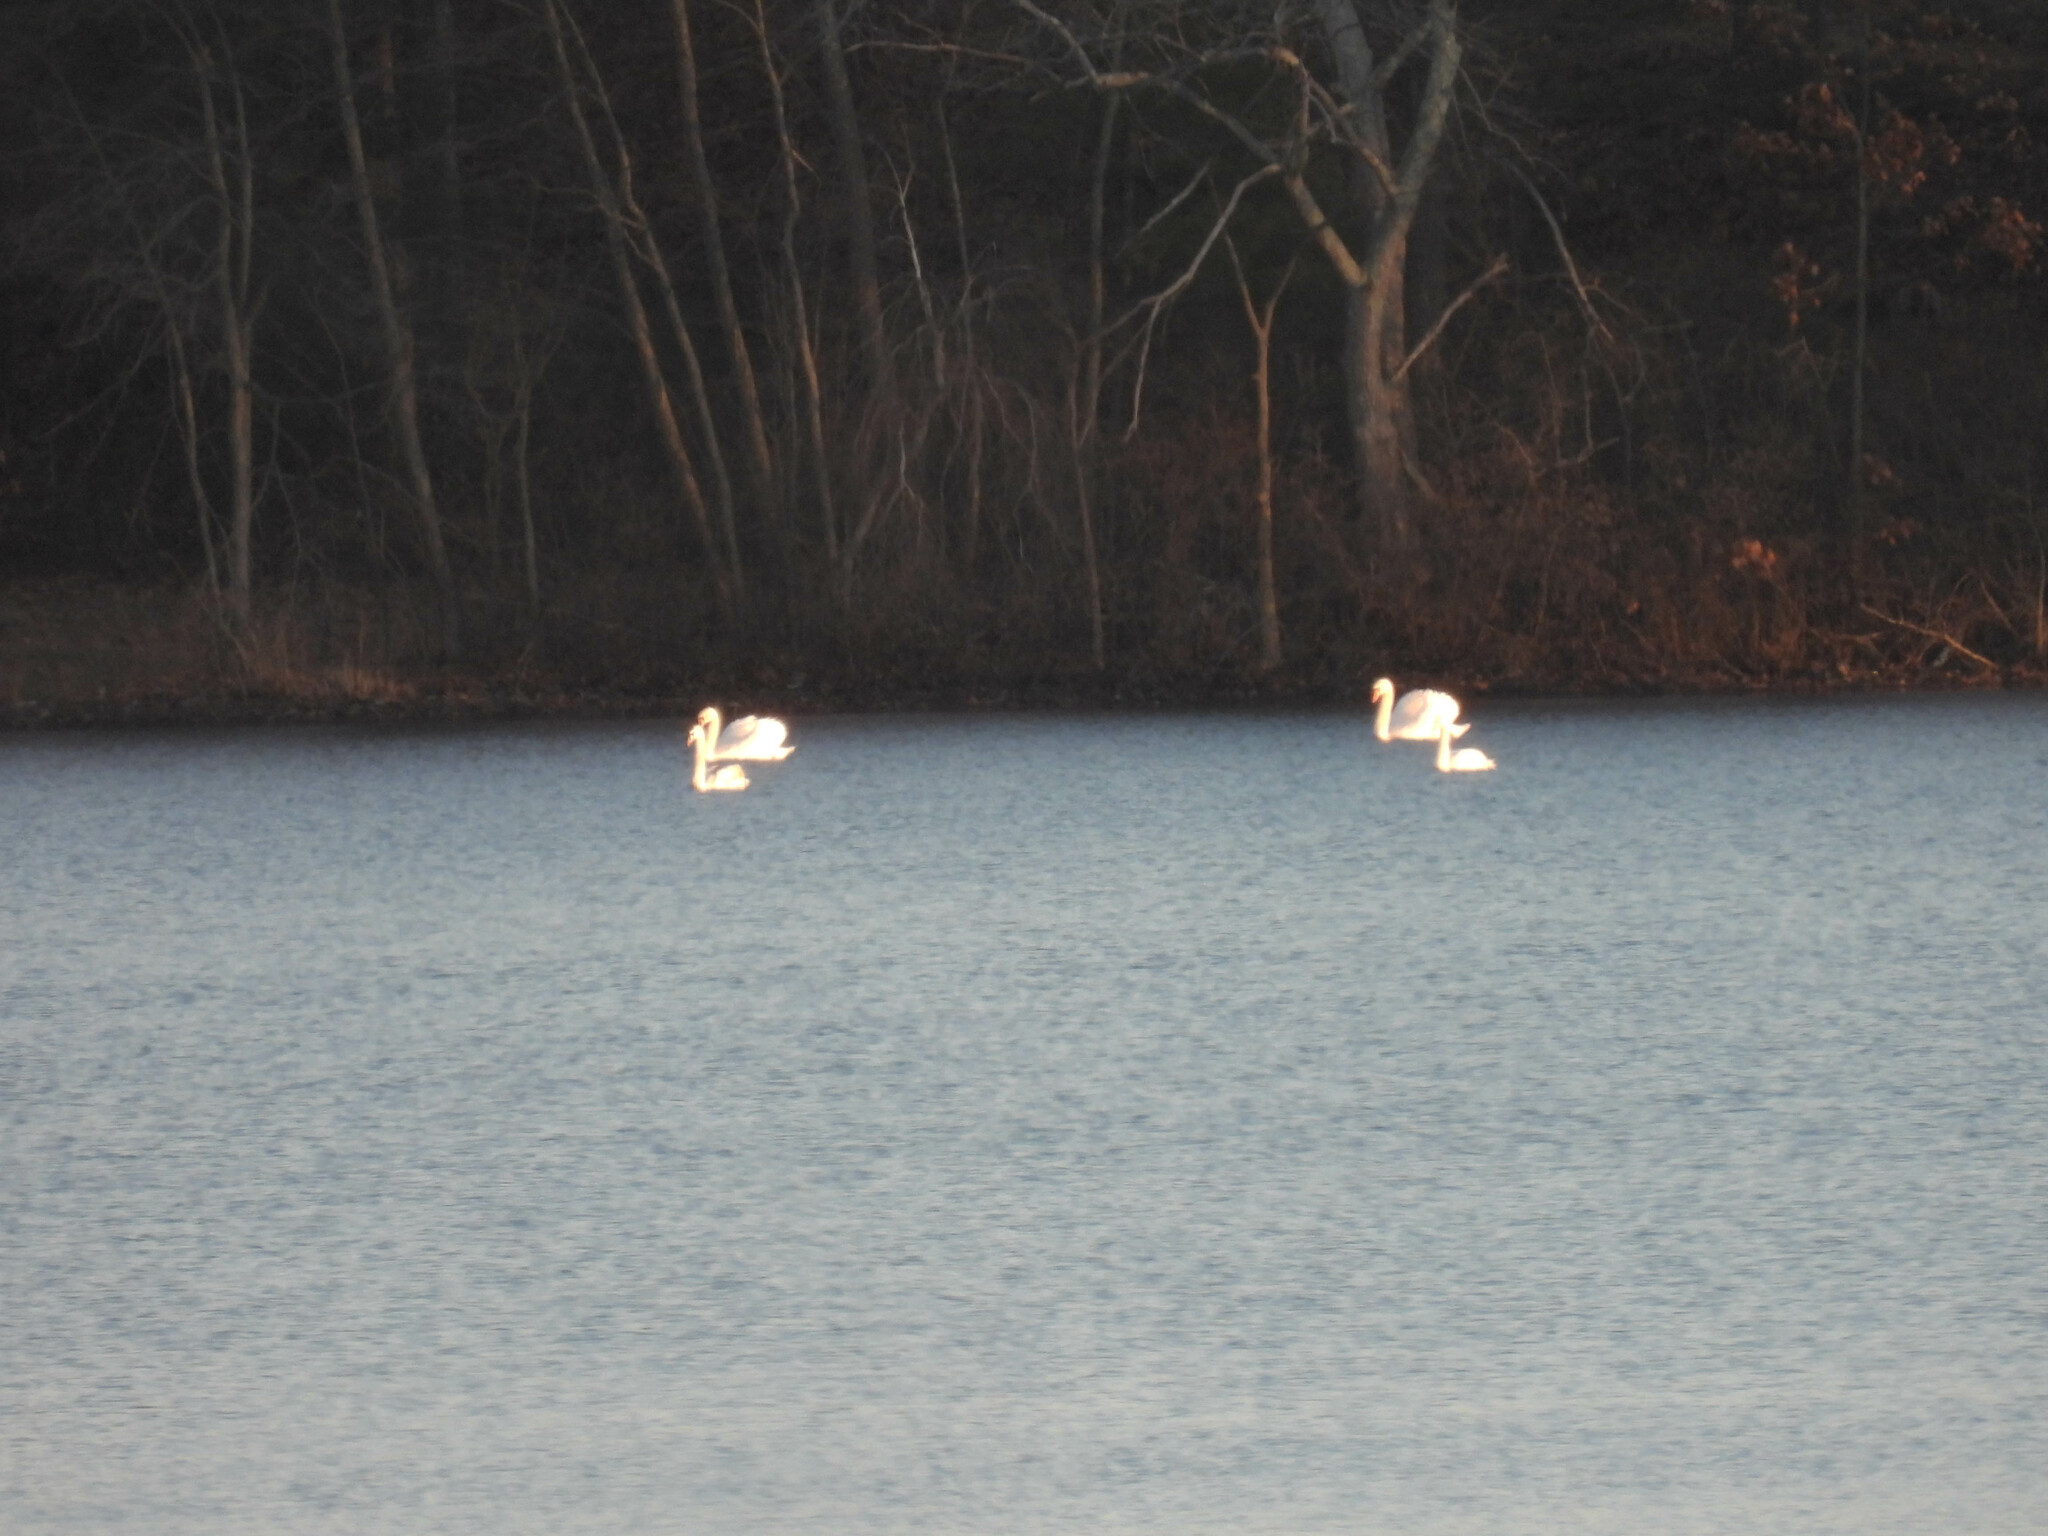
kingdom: Animalia
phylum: Chordata
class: Aves
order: Anseriformes
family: Anatidae
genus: Cygnus
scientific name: Cygnus olor
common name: Mute swan
